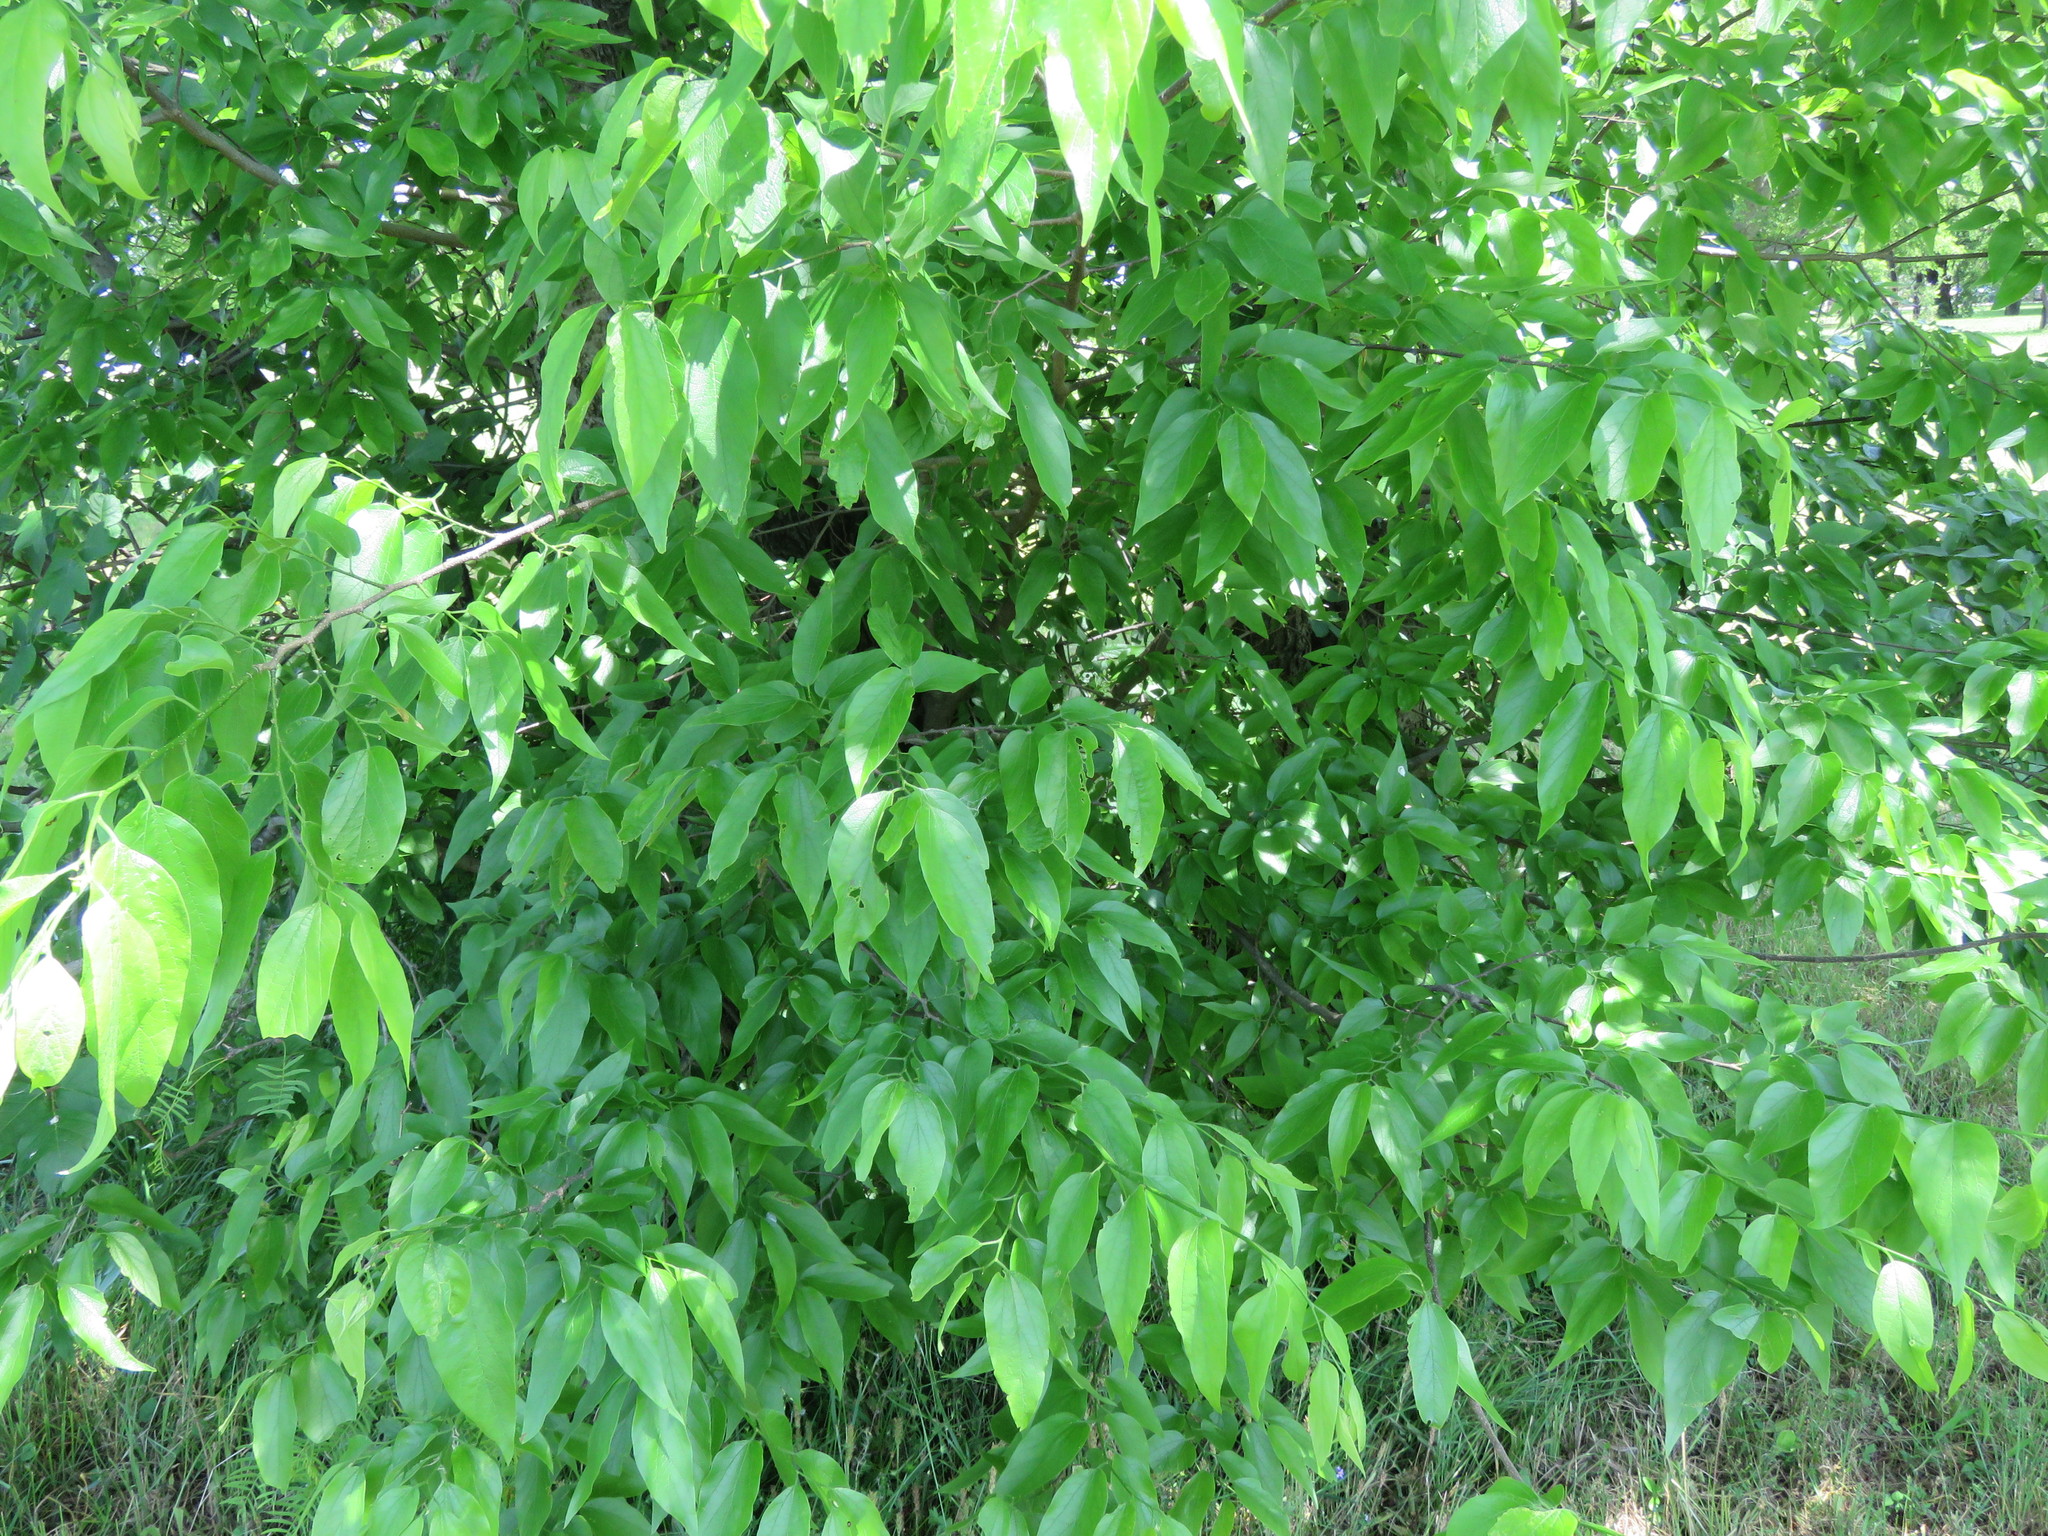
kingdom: Plantae
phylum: Tracheophyta
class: Magnoliopsida
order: Rosales
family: Cannabaceae
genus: Celtis
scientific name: Celtis laevigata
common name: Sugarberry
